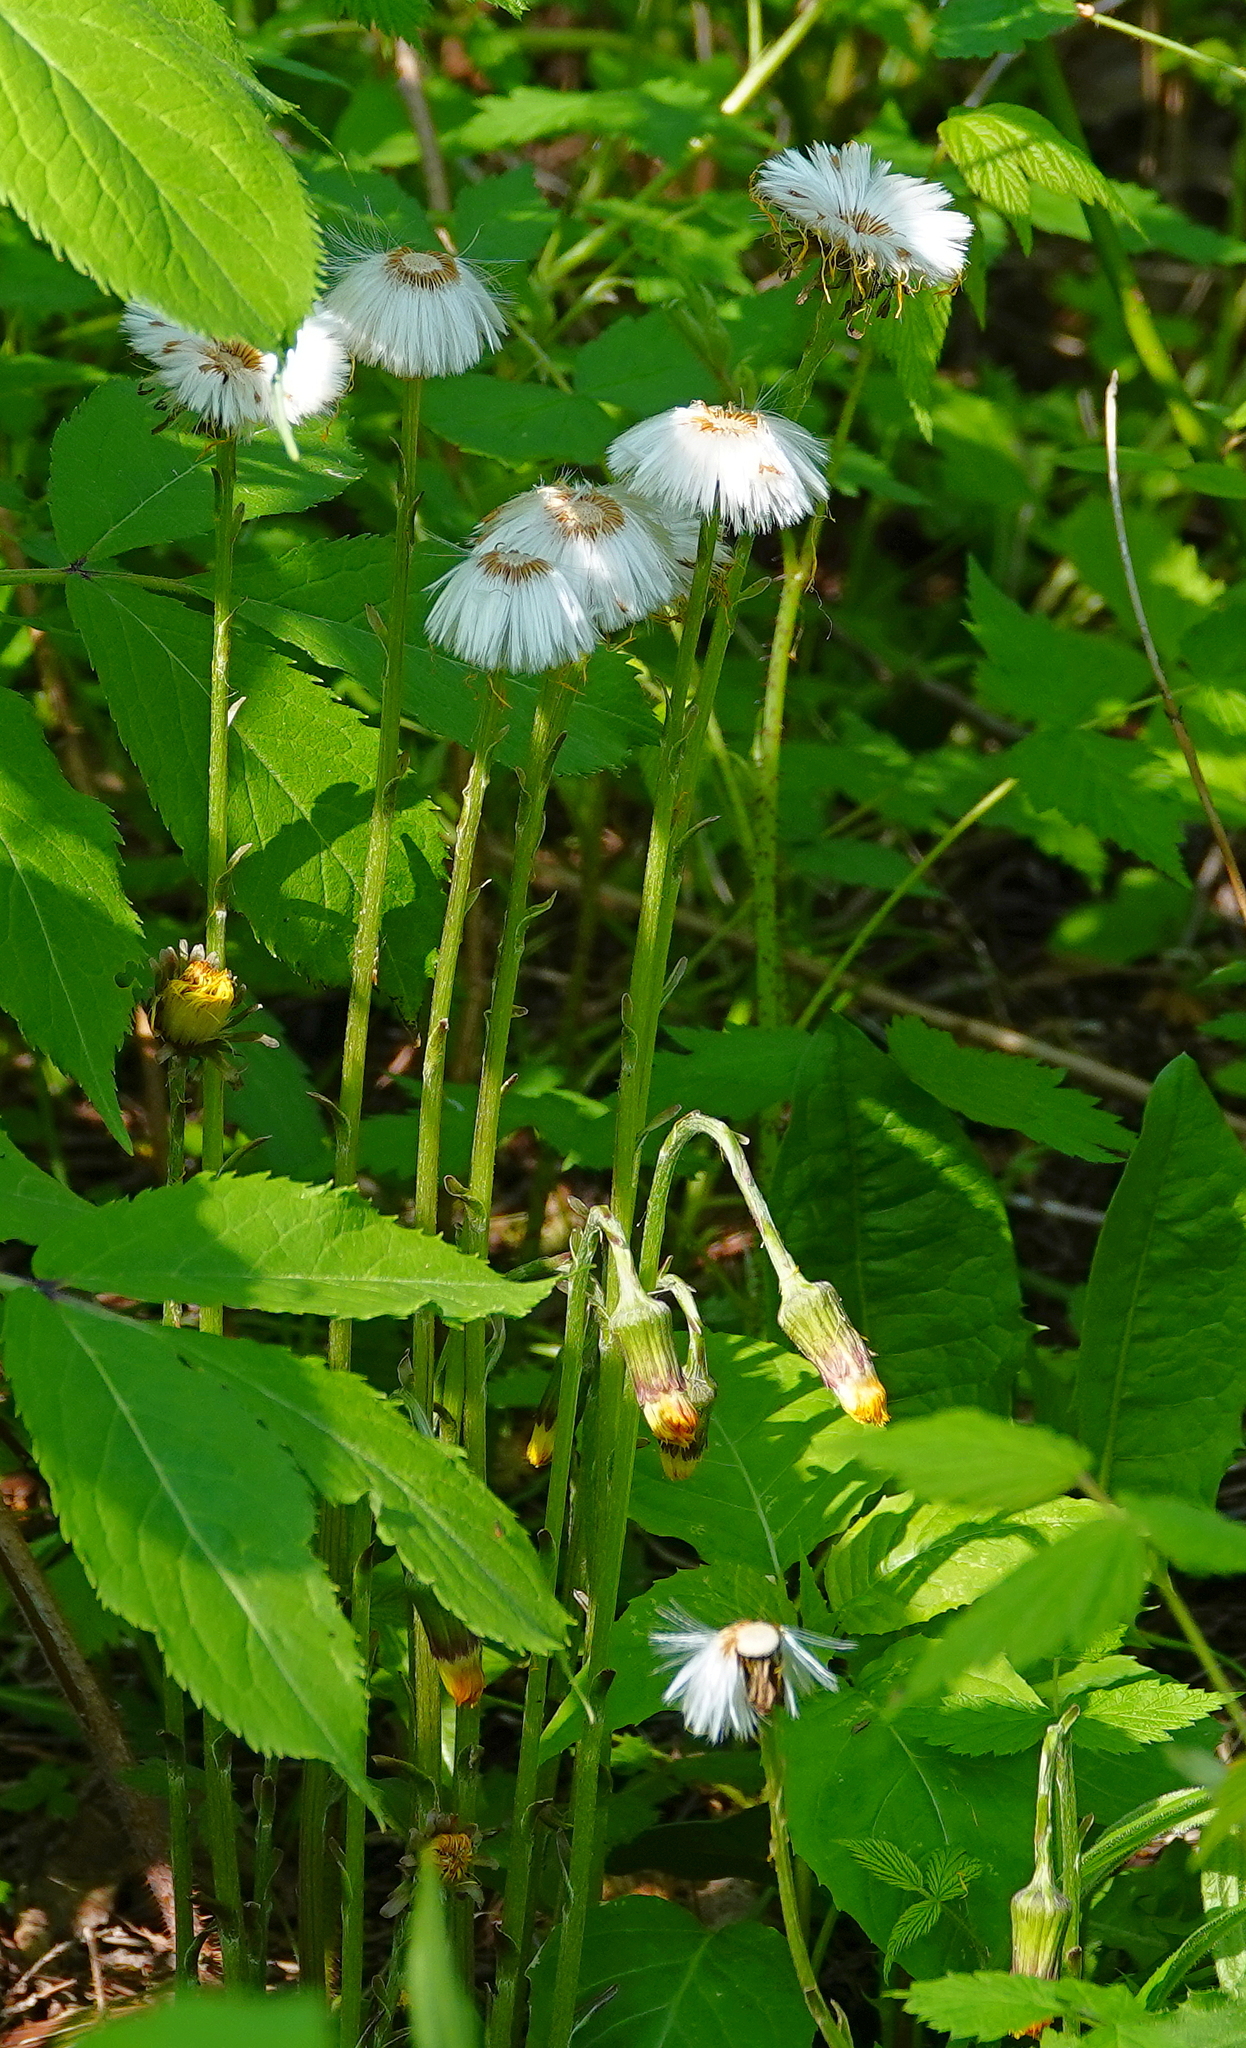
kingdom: Plantae
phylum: Tracheophyta
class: Magnoliopsida
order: Asterales
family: Asteraceae
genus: Tussilago
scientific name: Tussilago farfara
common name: Coltsfoot
